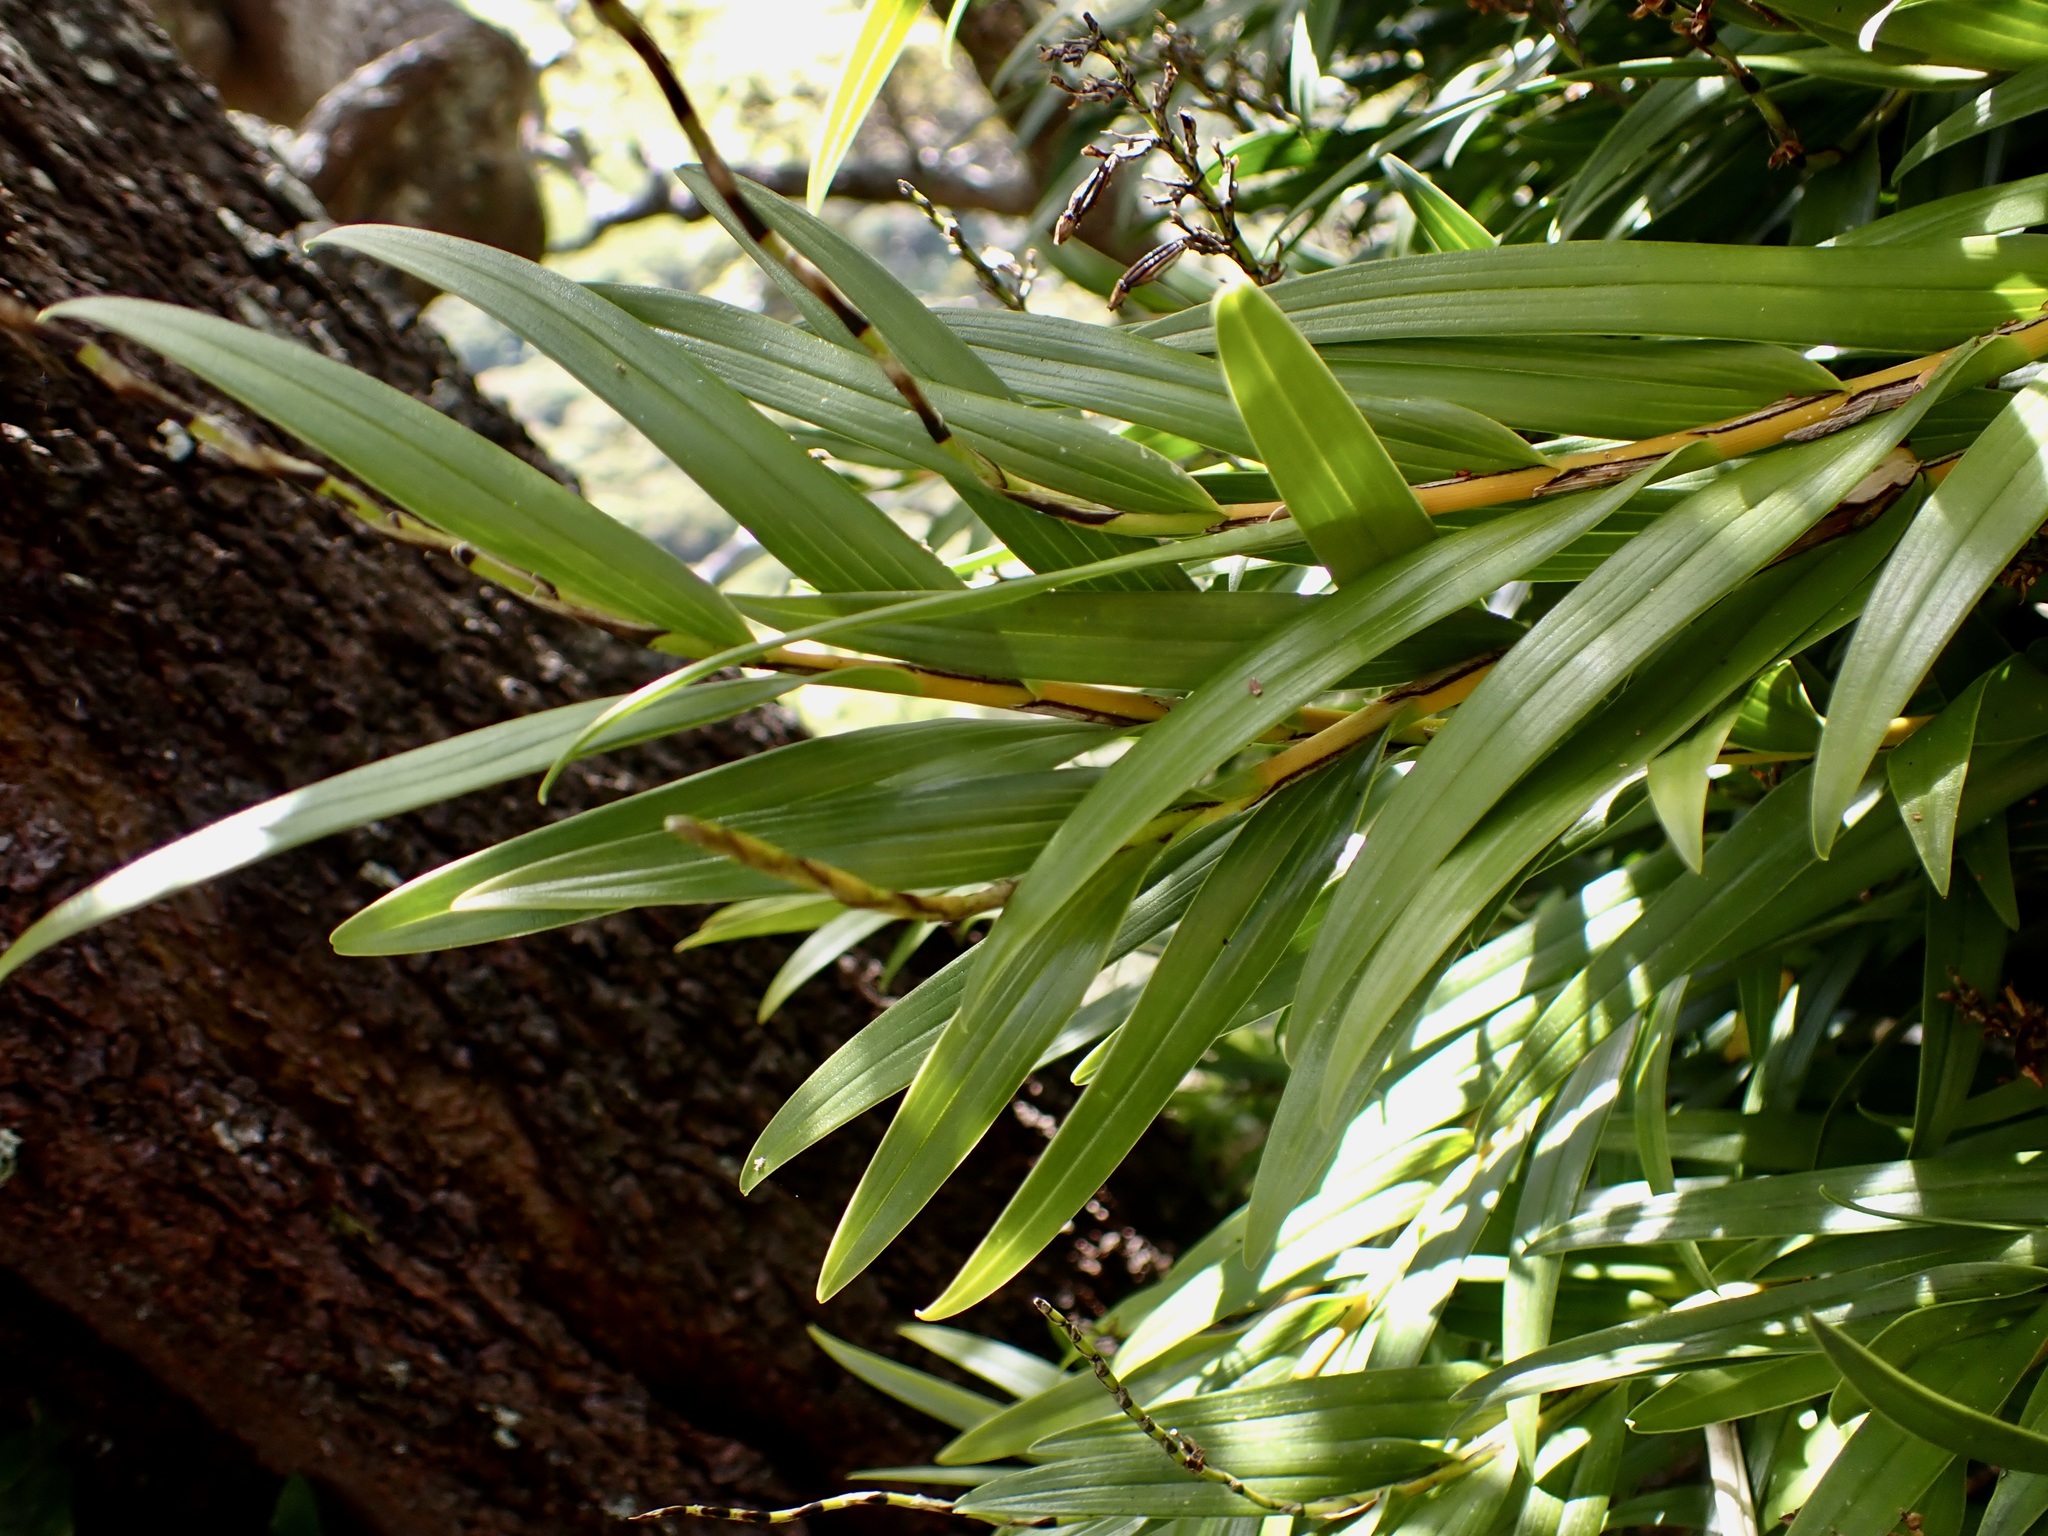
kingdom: Plantae
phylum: Tracheophyta
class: Liliopsida
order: Asparagales
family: Orchidaceae
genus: Earina
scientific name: Earina autumnalis
